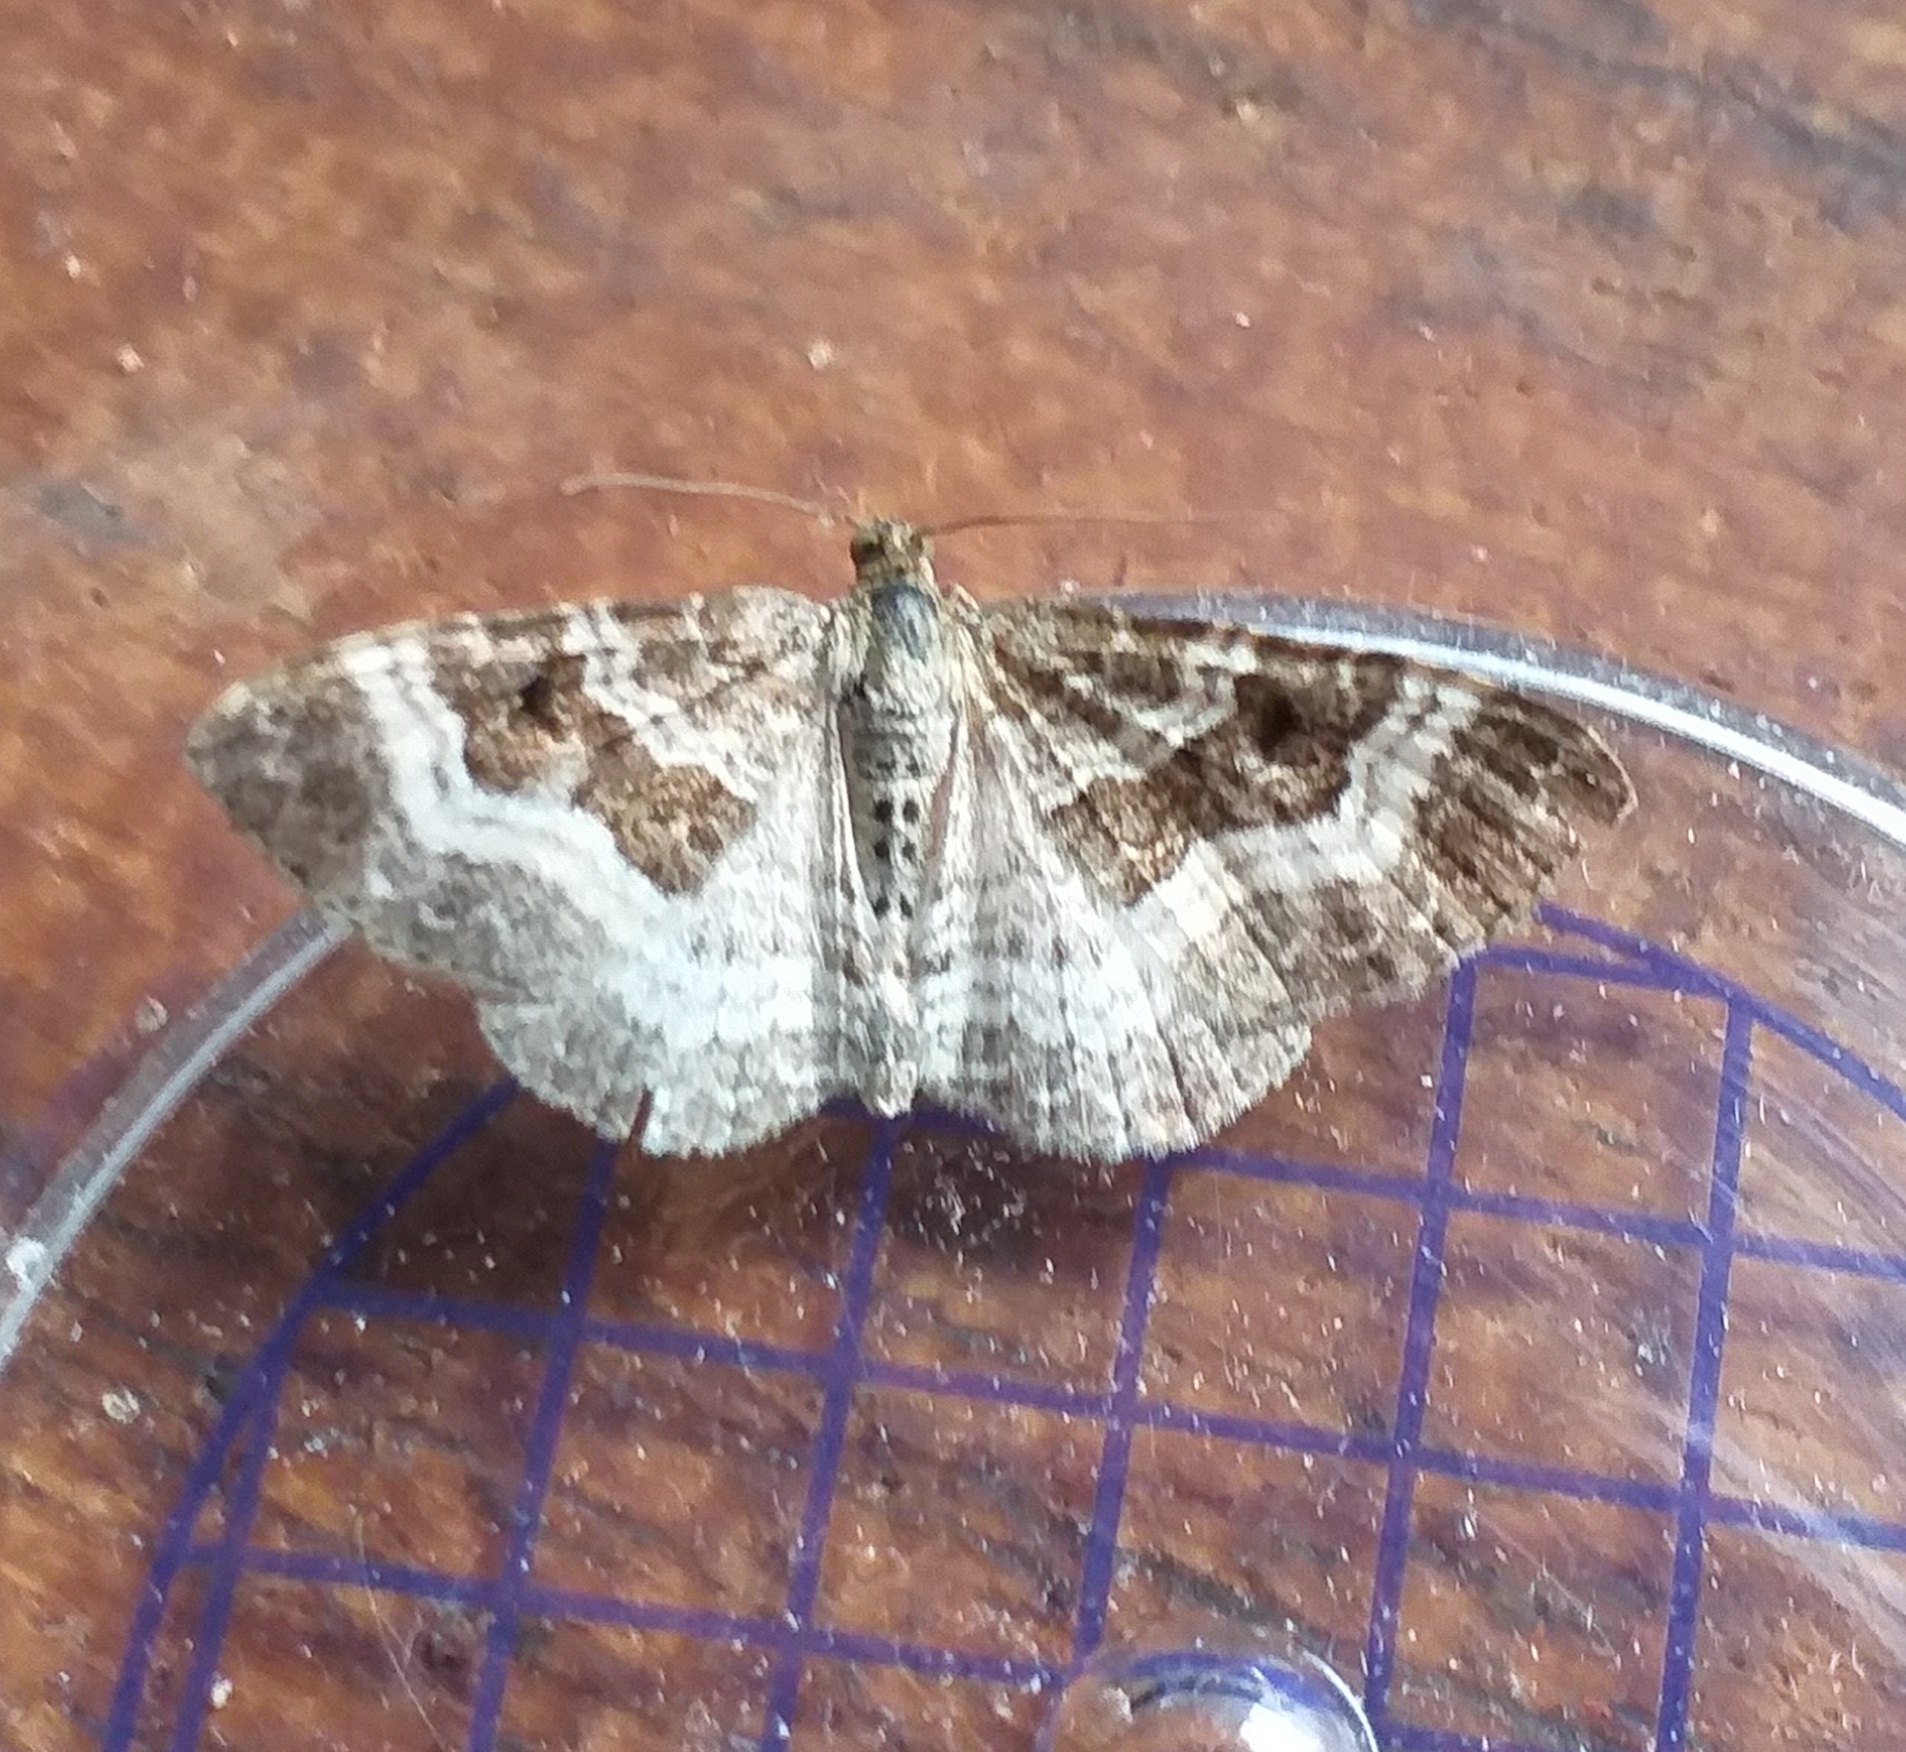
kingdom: Animalia
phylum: Arthropoda
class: Insecta
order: Lepidoptera
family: Geometridae
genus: Epirrhoe
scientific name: Epirrhoe alternata
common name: Common carpet
